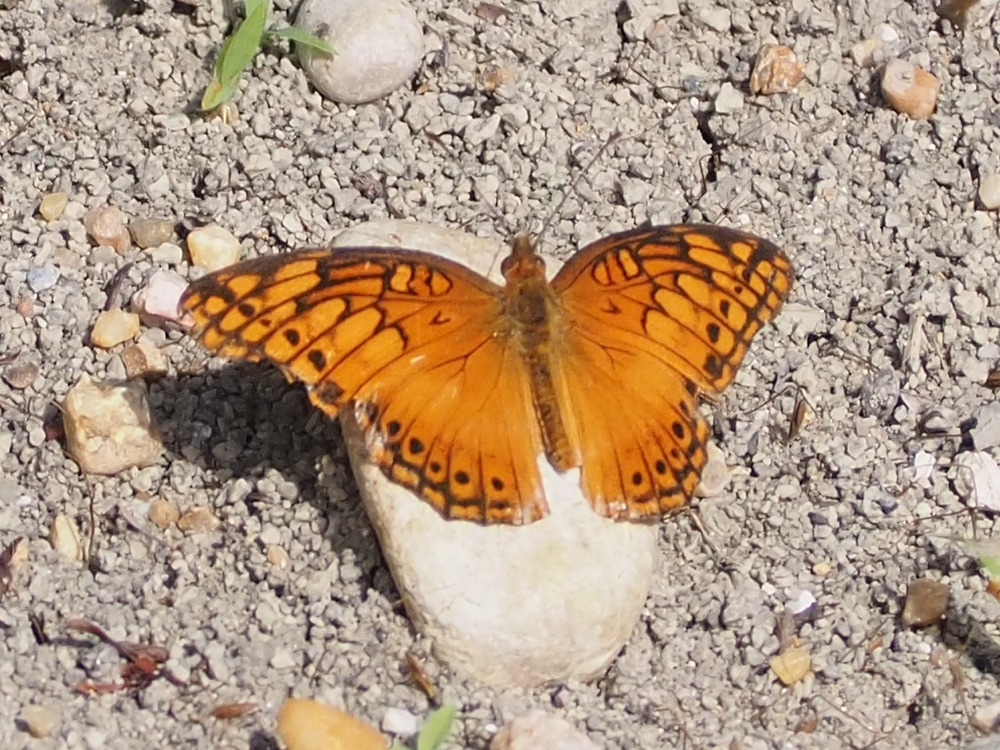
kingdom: Animalia
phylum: Arthropoda
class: Insecta
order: Lepidoptera
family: Nymphalidae
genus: Euptoieta
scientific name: Euptoieta hegesia
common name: Mexican fritillary
